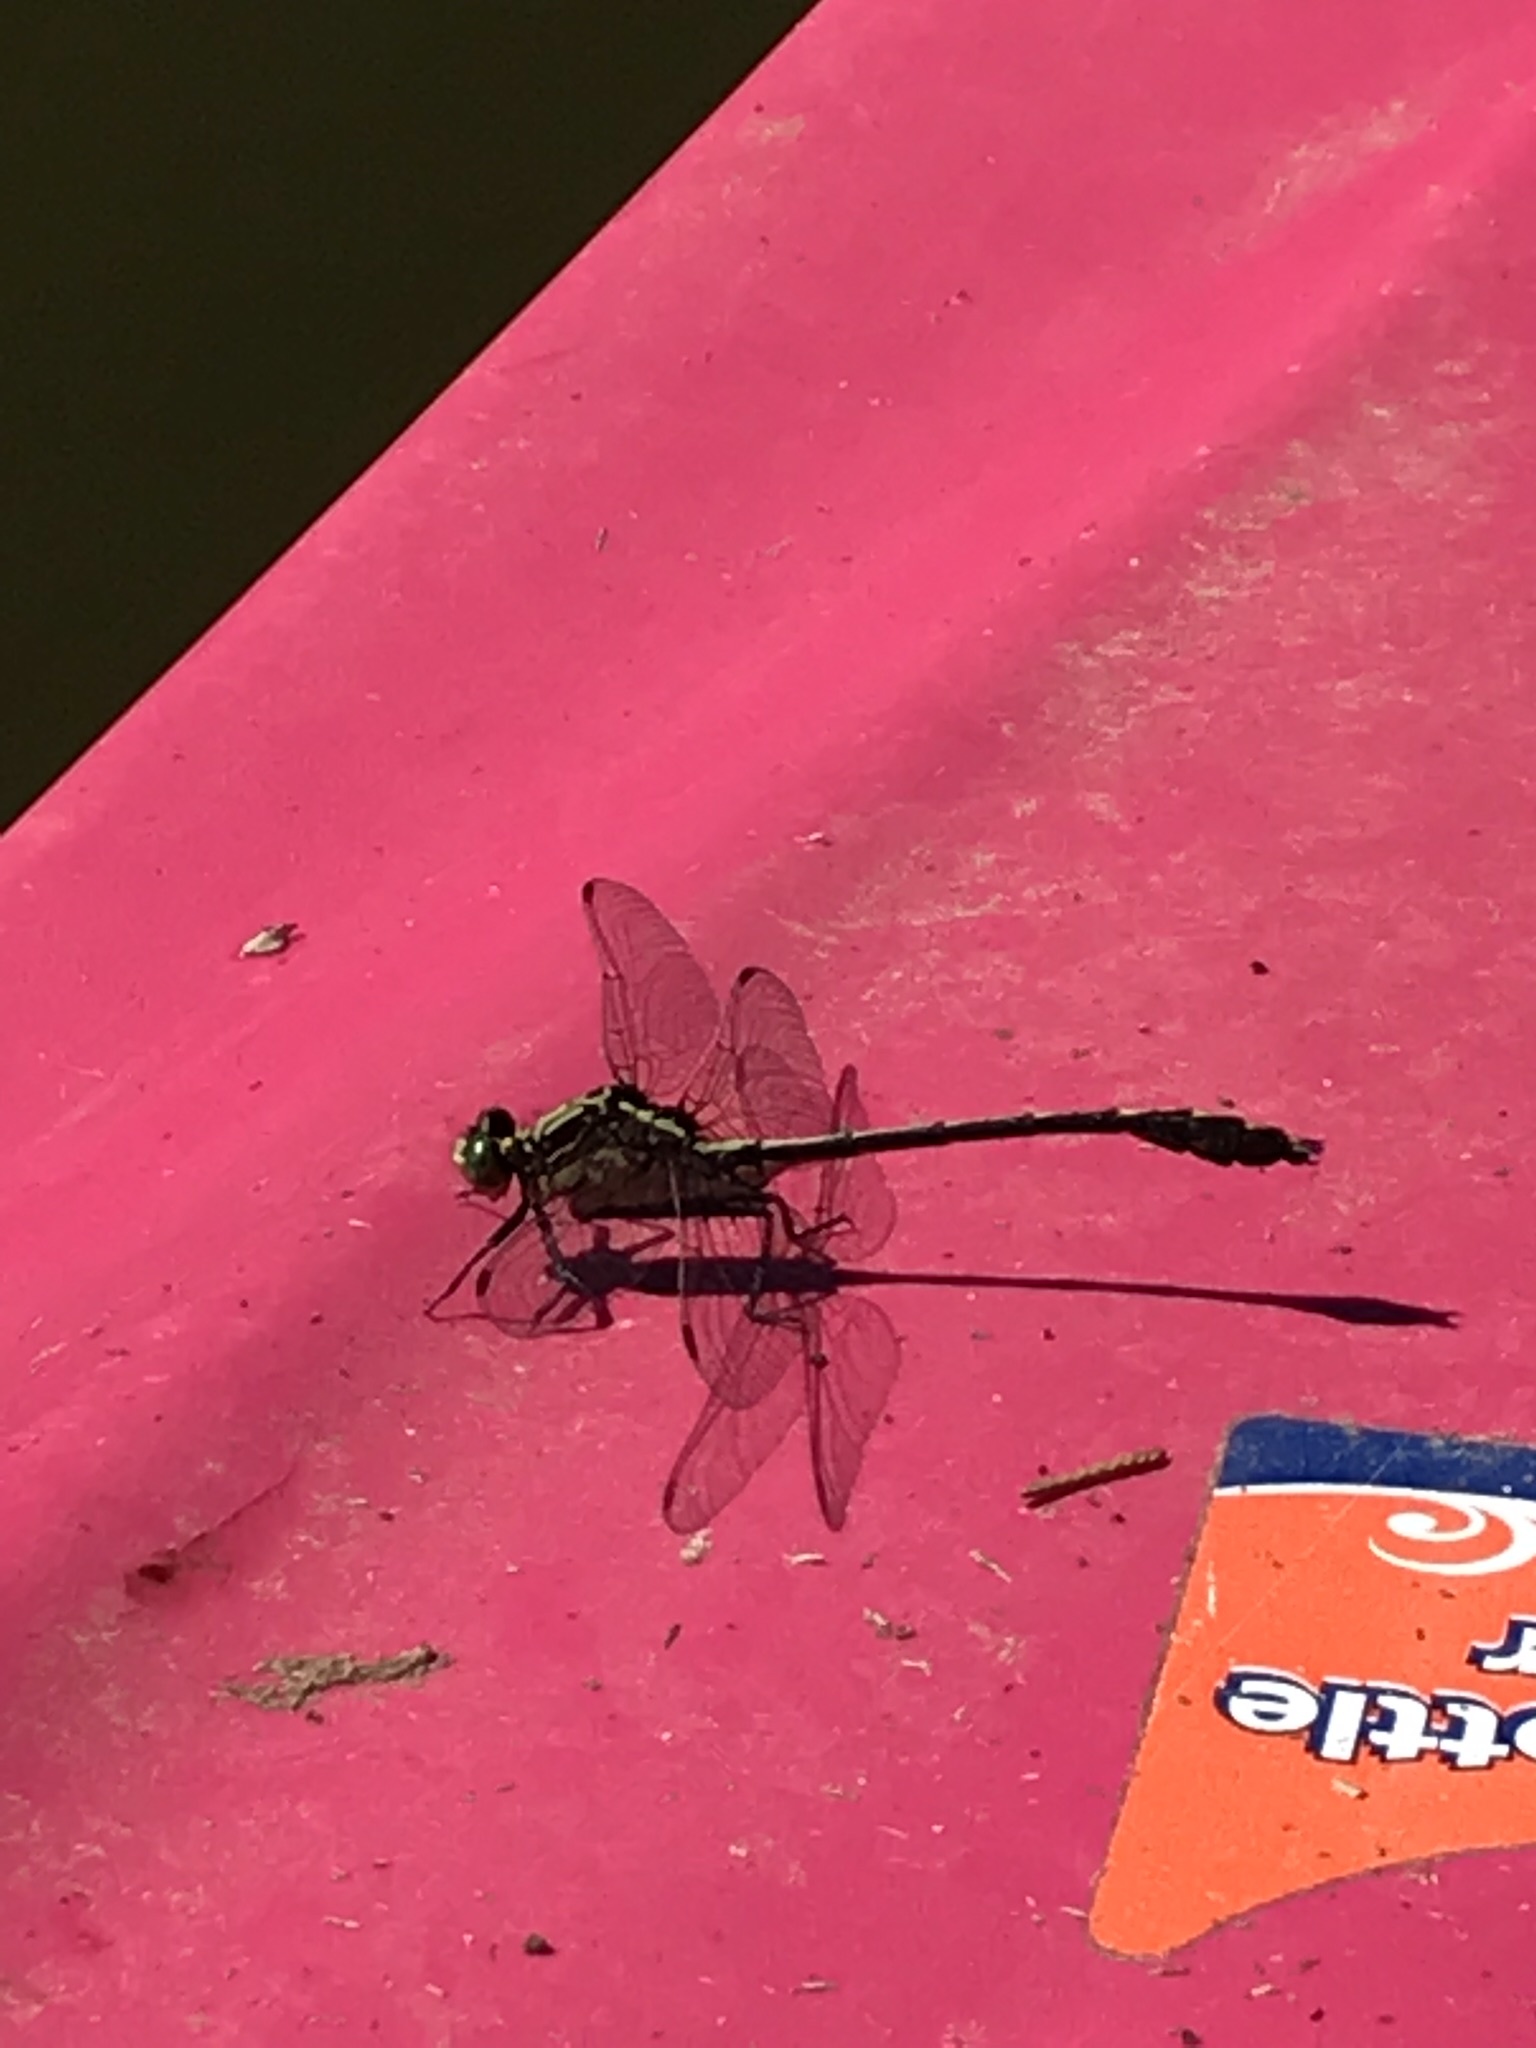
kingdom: Animalia
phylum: Arthropoda
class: Insecta
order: Odonata
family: Gomphidae
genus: Dromogomphus
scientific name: Dromogomphus spinosus
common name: Black-shouldered spinyleg
